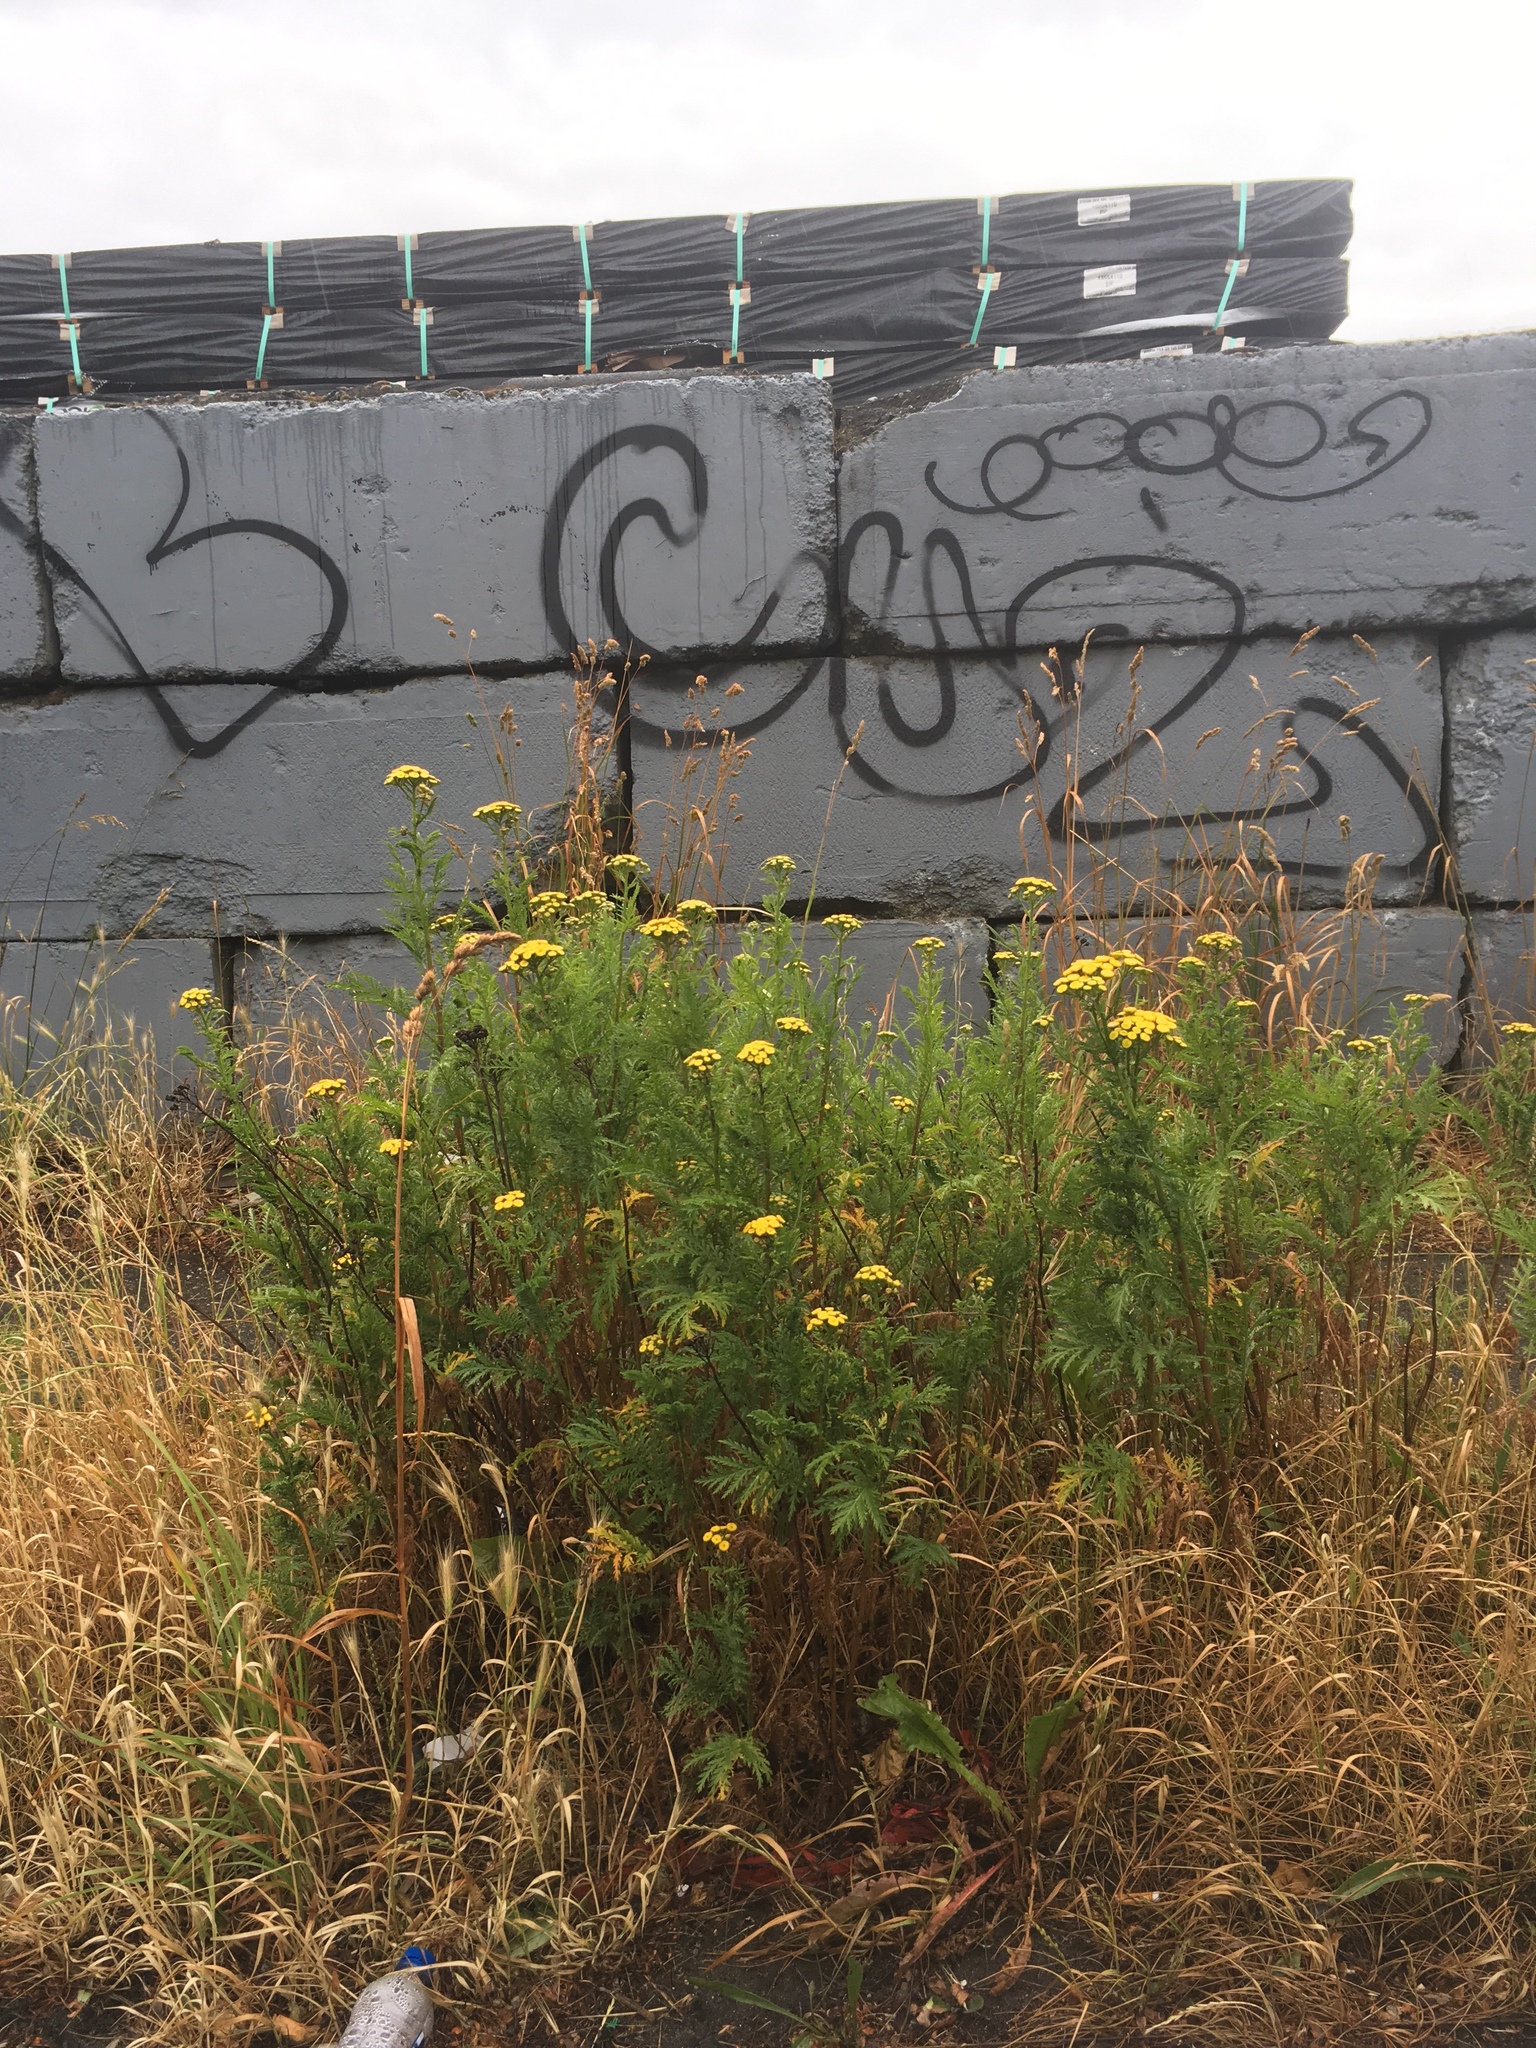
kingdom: Plantae
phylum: Tracheophyta
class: Magnoliopsida
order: Asterales
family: Asteraceae
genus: Tanacetum
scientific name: Tanacetum vulgare
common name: Common tansy
